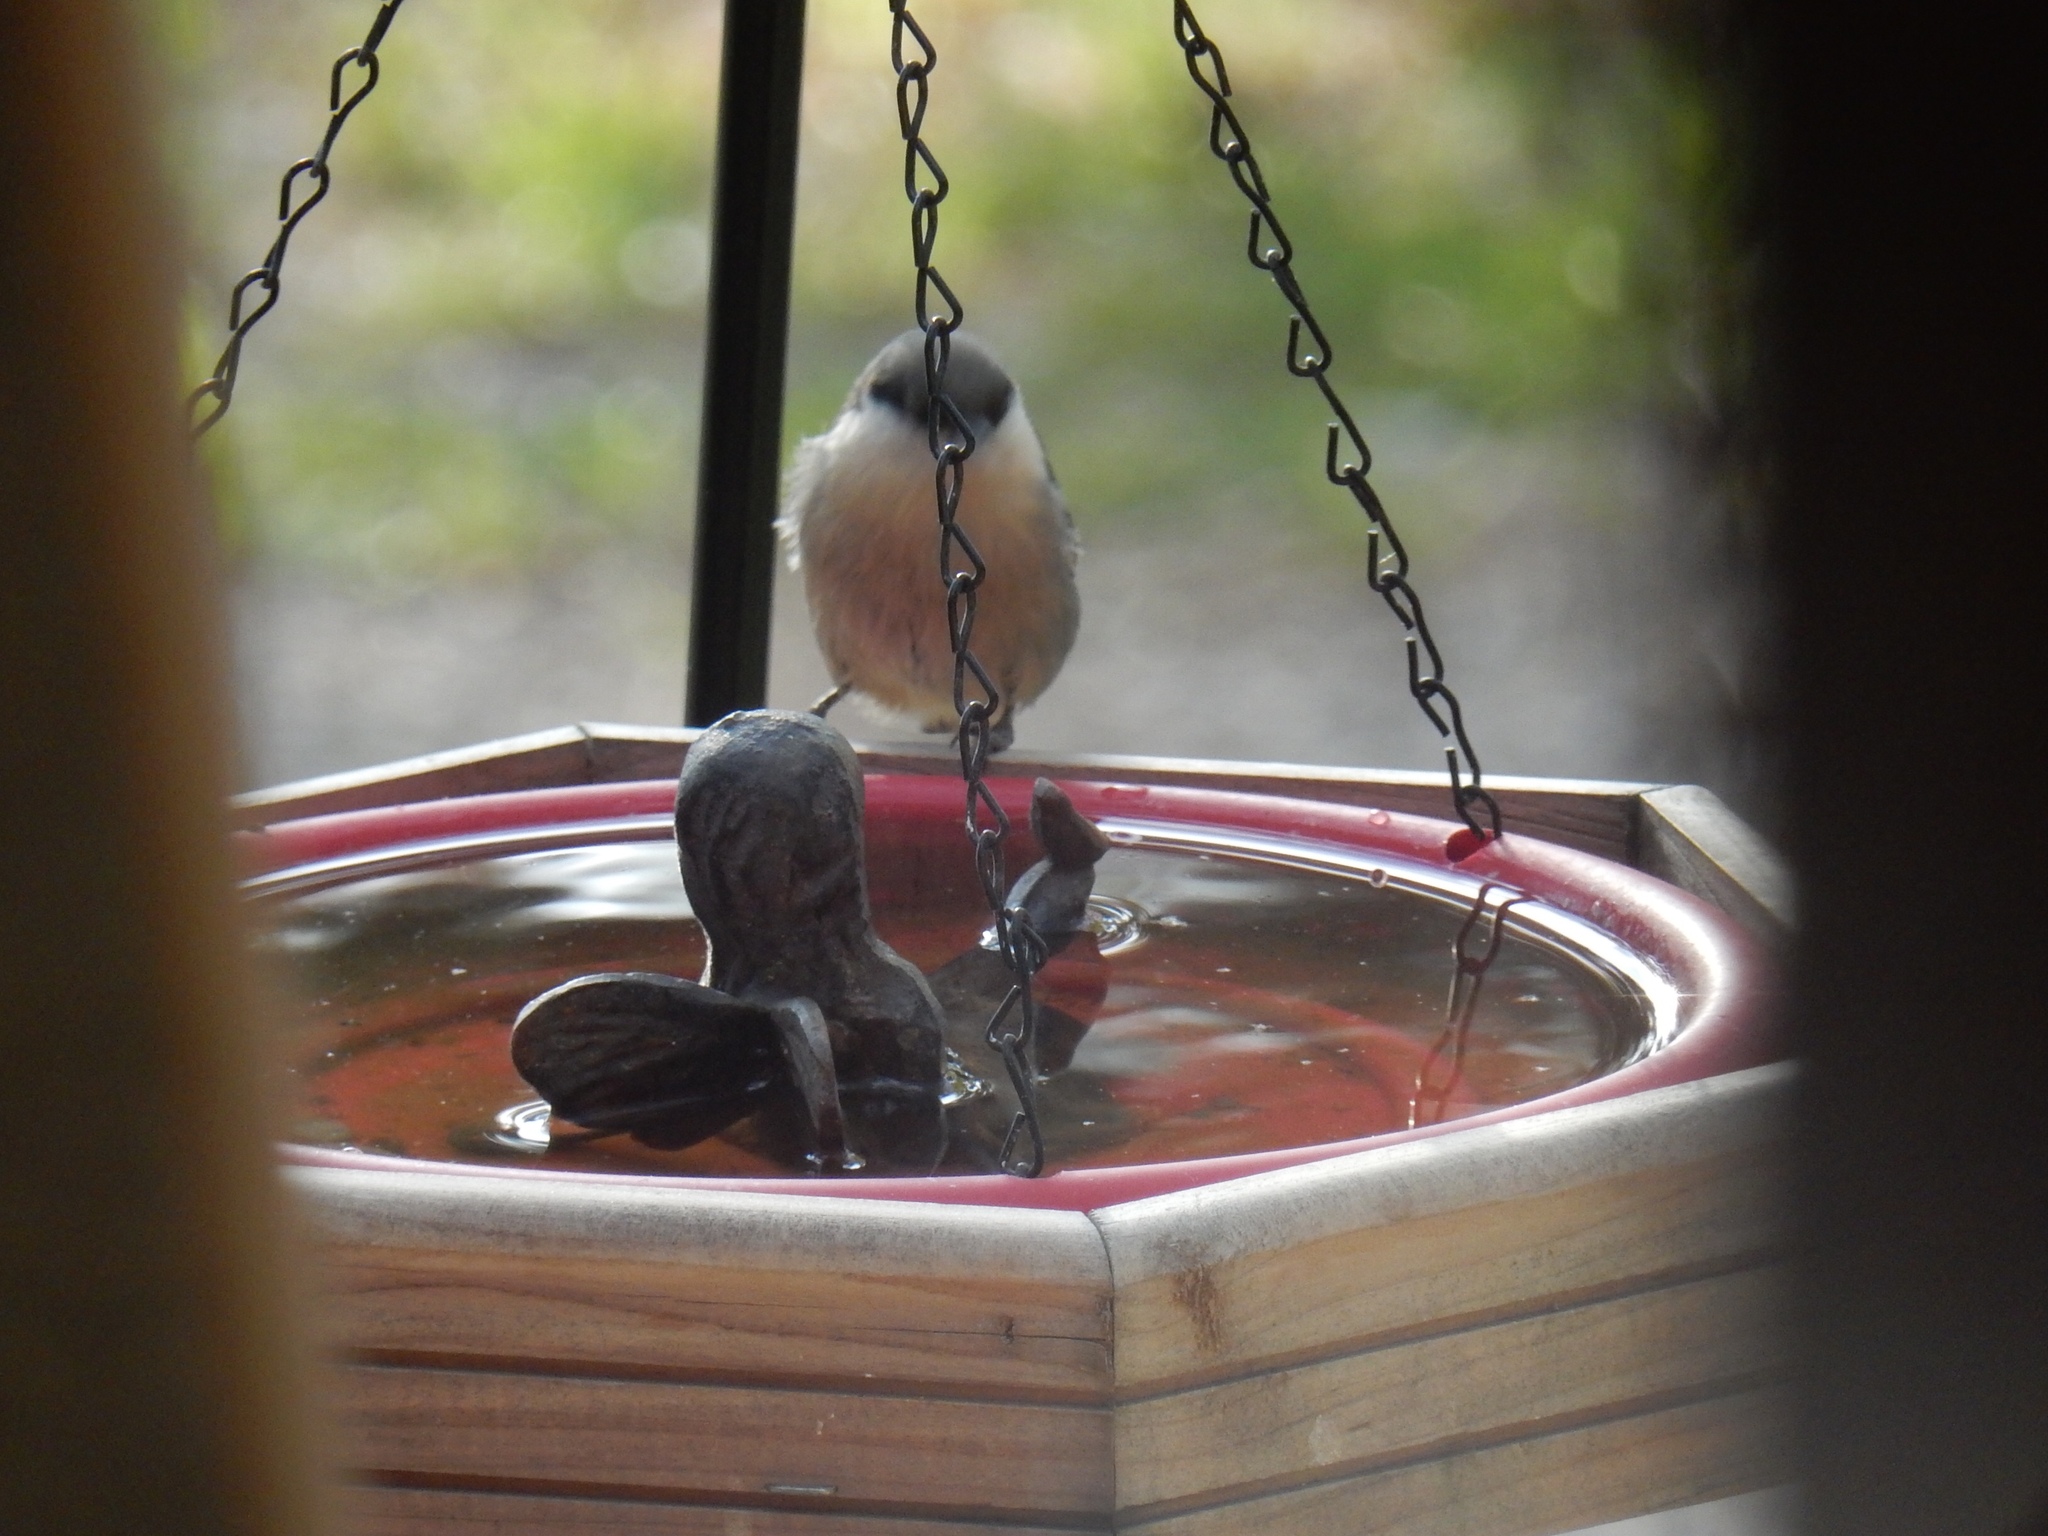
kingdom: Animalia
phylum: Chordata
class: Aves
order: Passeriformes
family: Sittidae
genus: Sitta
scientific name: Sitta pygmaea
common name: Pygmy nuthatch
